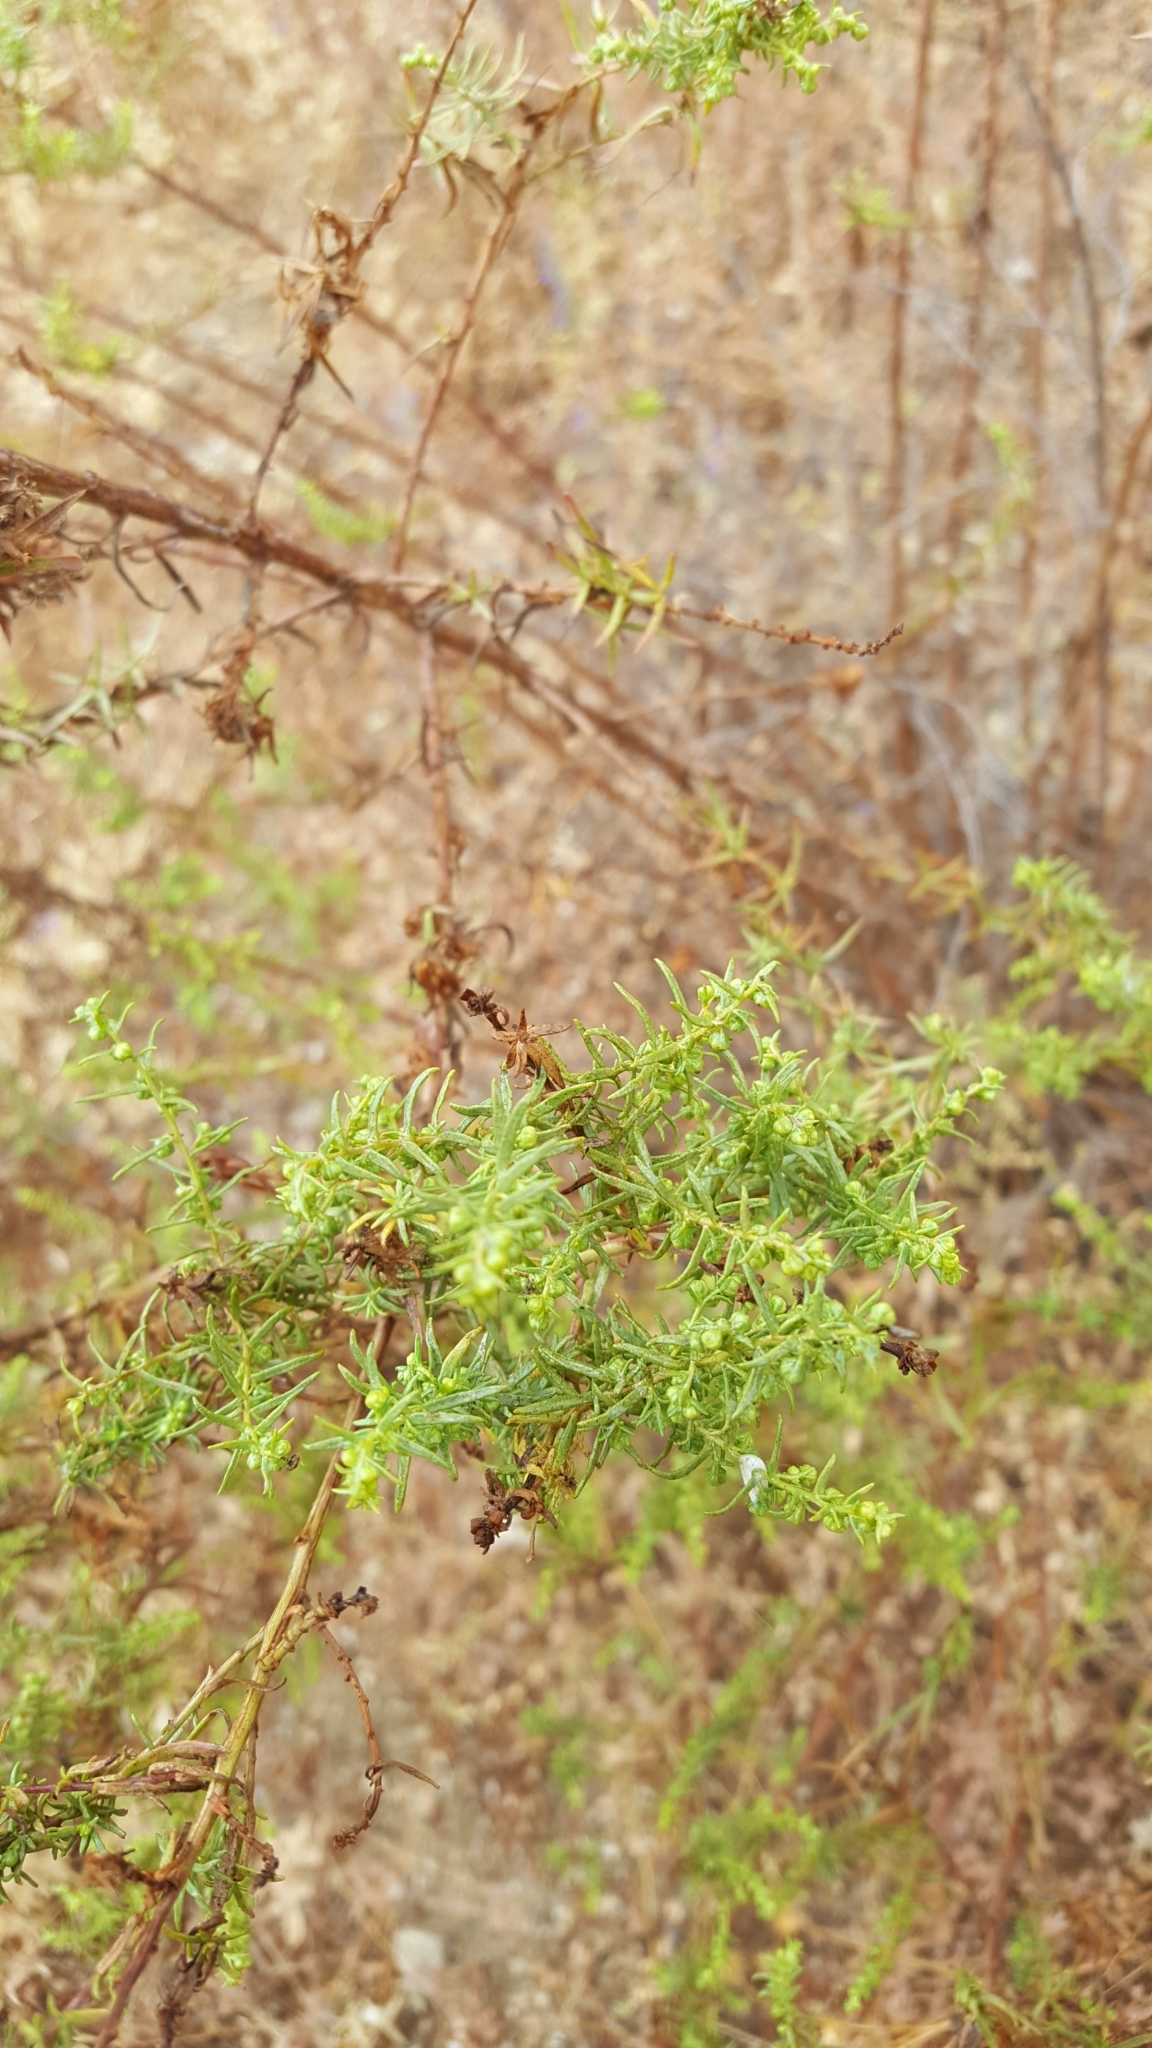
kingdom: Plantae
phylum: Tracheophyta
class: Magnoliopsida
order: Asterales
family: Asteraceae
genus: Artemisia
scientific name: Artemisia dracunculus
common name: Tarragon
